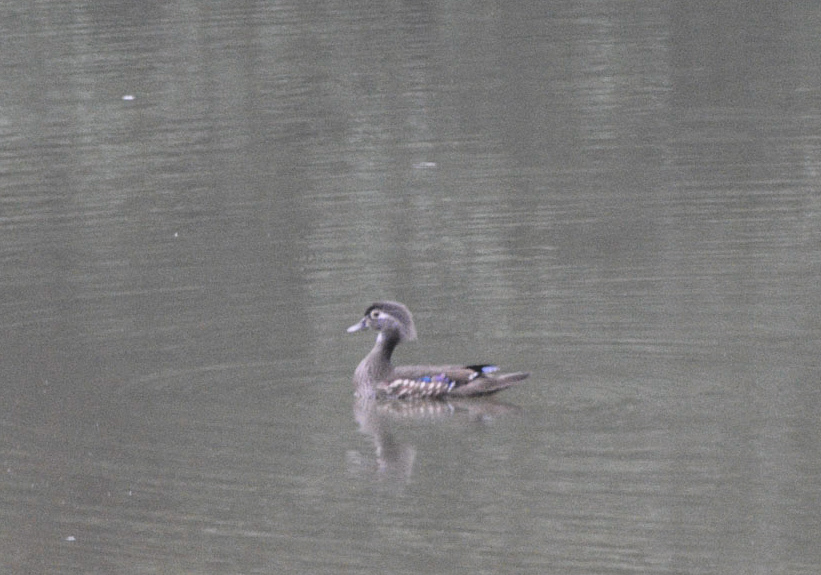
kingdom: Animalia
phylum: Chordata
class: Aves
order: Anseriformes
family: Anatidae
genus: Aix
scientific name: Aix sponsa
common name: Wood duck
